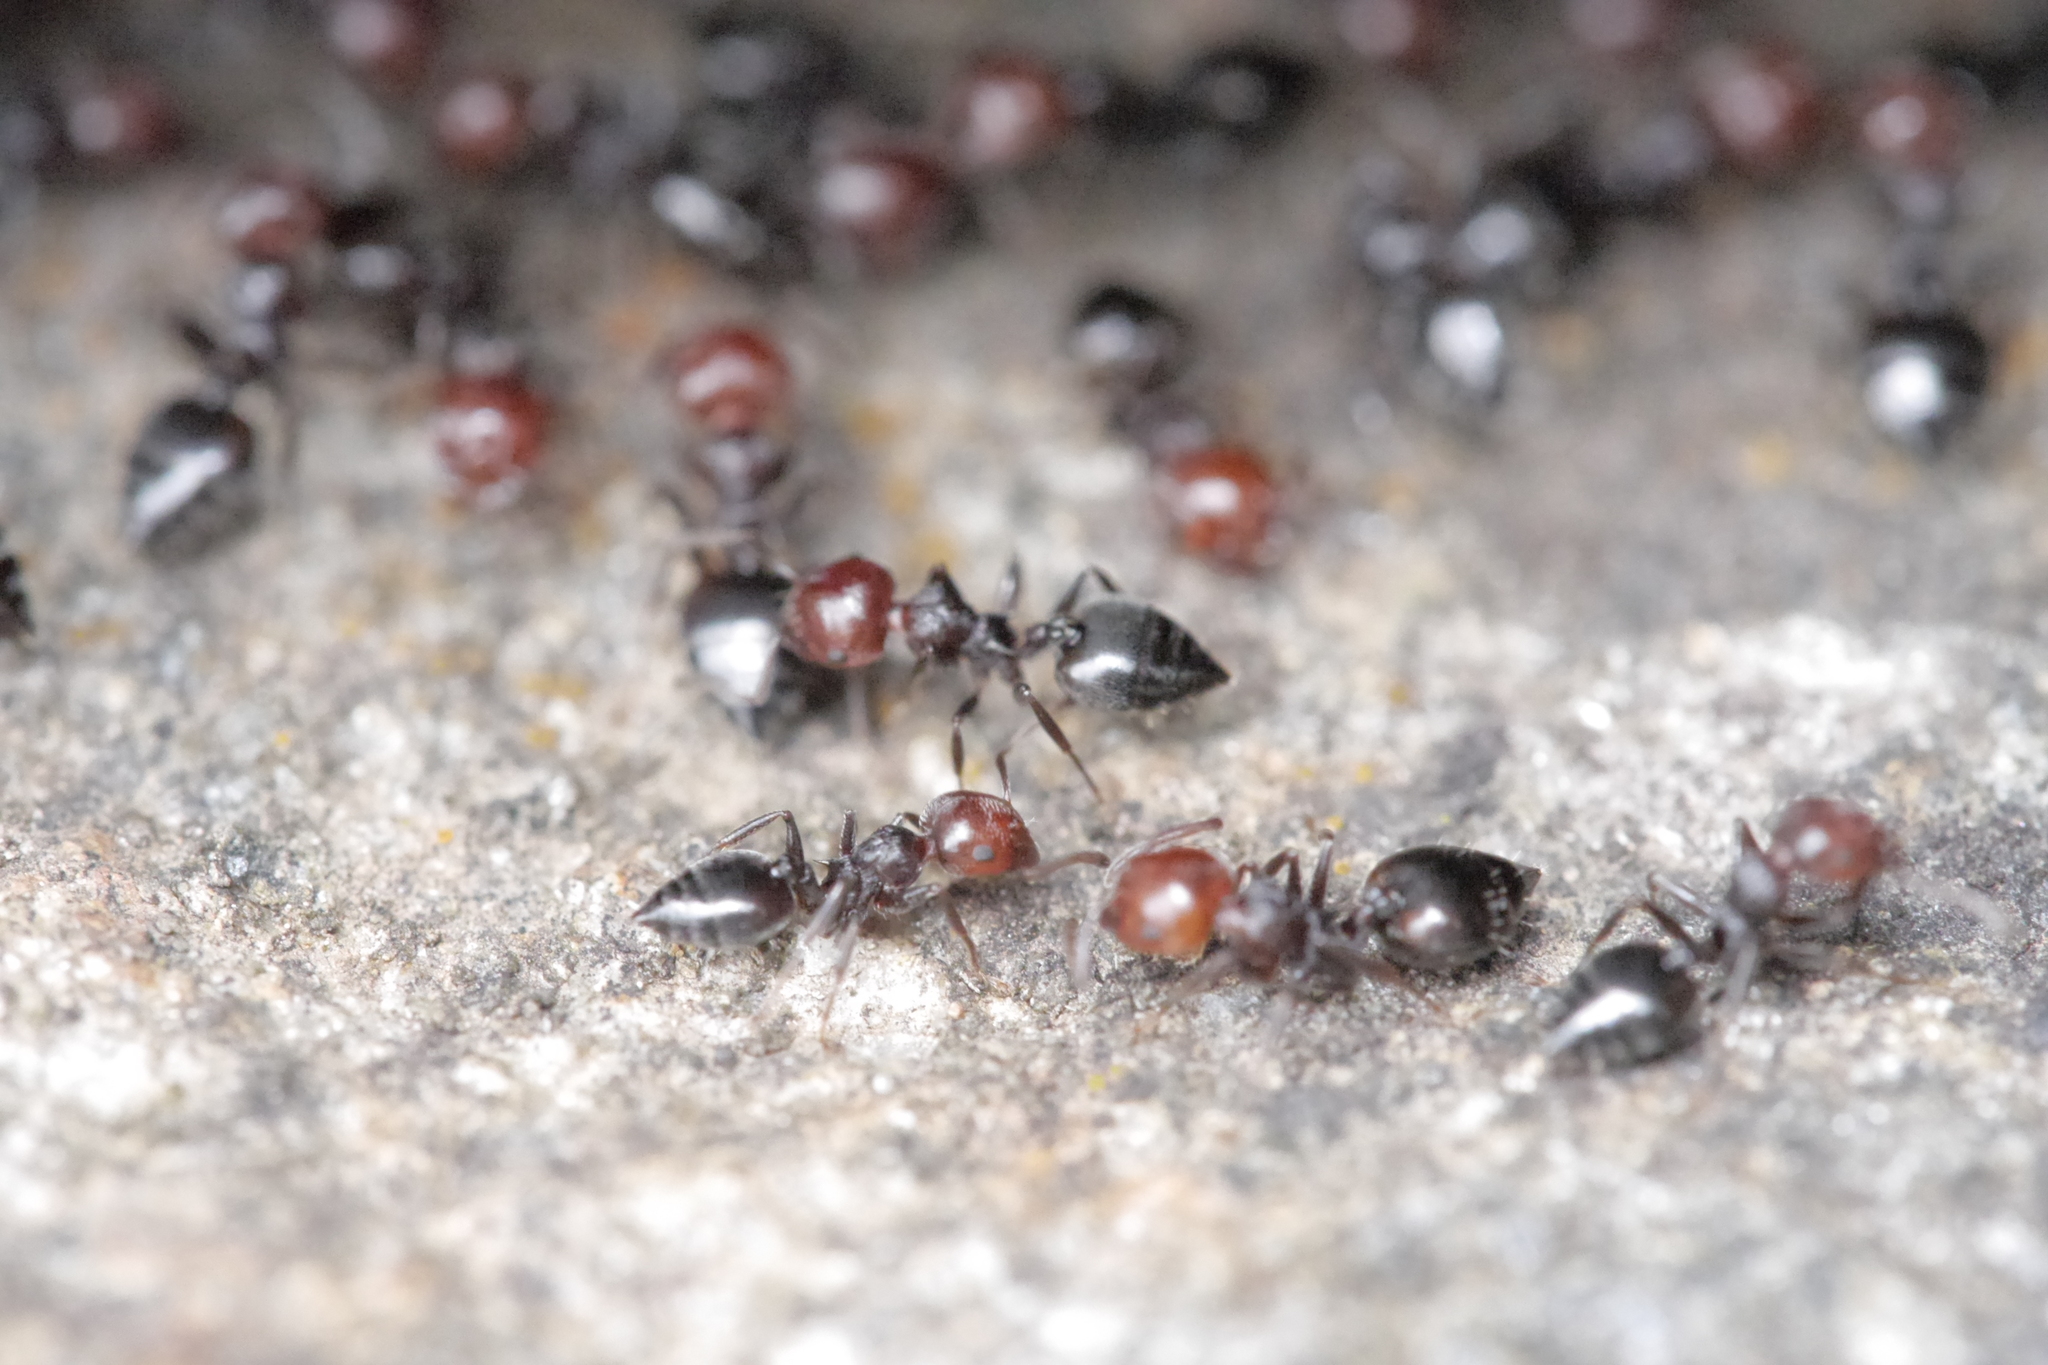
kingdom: Animalia
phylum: Arthropoda
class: Insecta
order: Hymenoptera
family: Formicidae
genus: Crematogaster
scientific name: Crematogaster scutellaris
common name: Fourmi du liège
